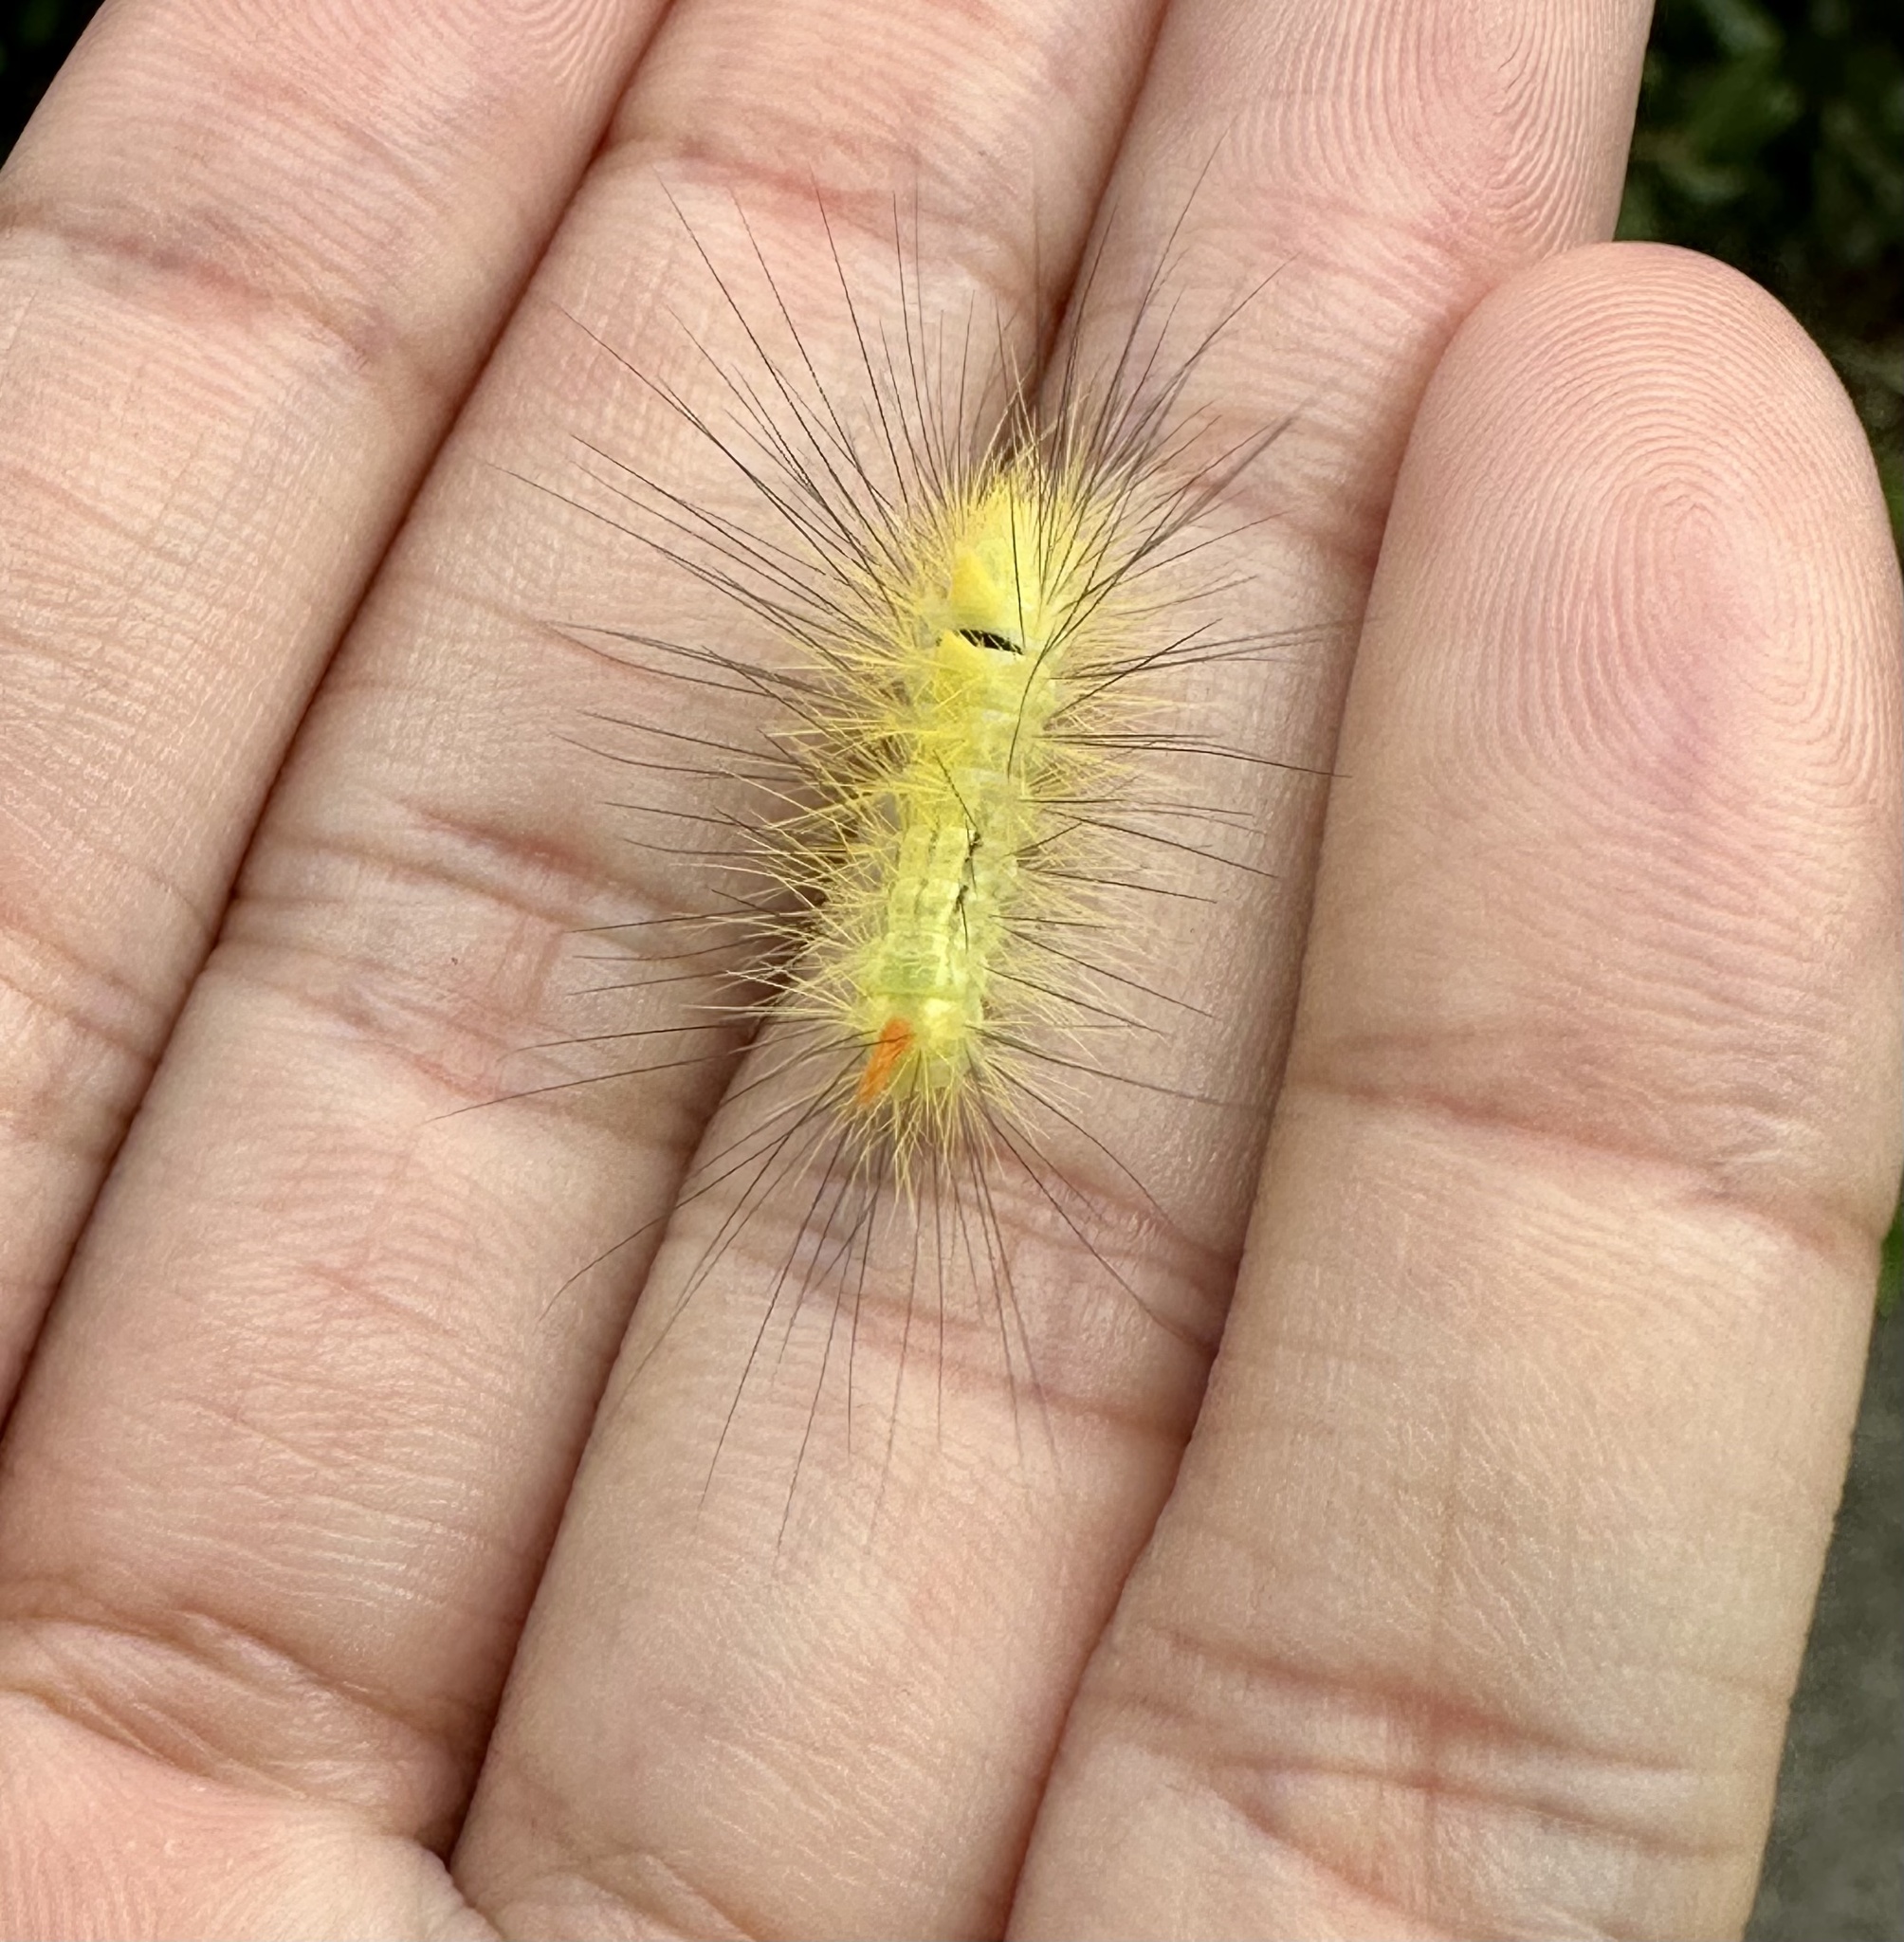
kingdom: Animalia
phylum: Arthropoda
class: Insecta
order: Lepidoptera
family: Erebidae
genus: Calliteara
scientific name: Calliteara
